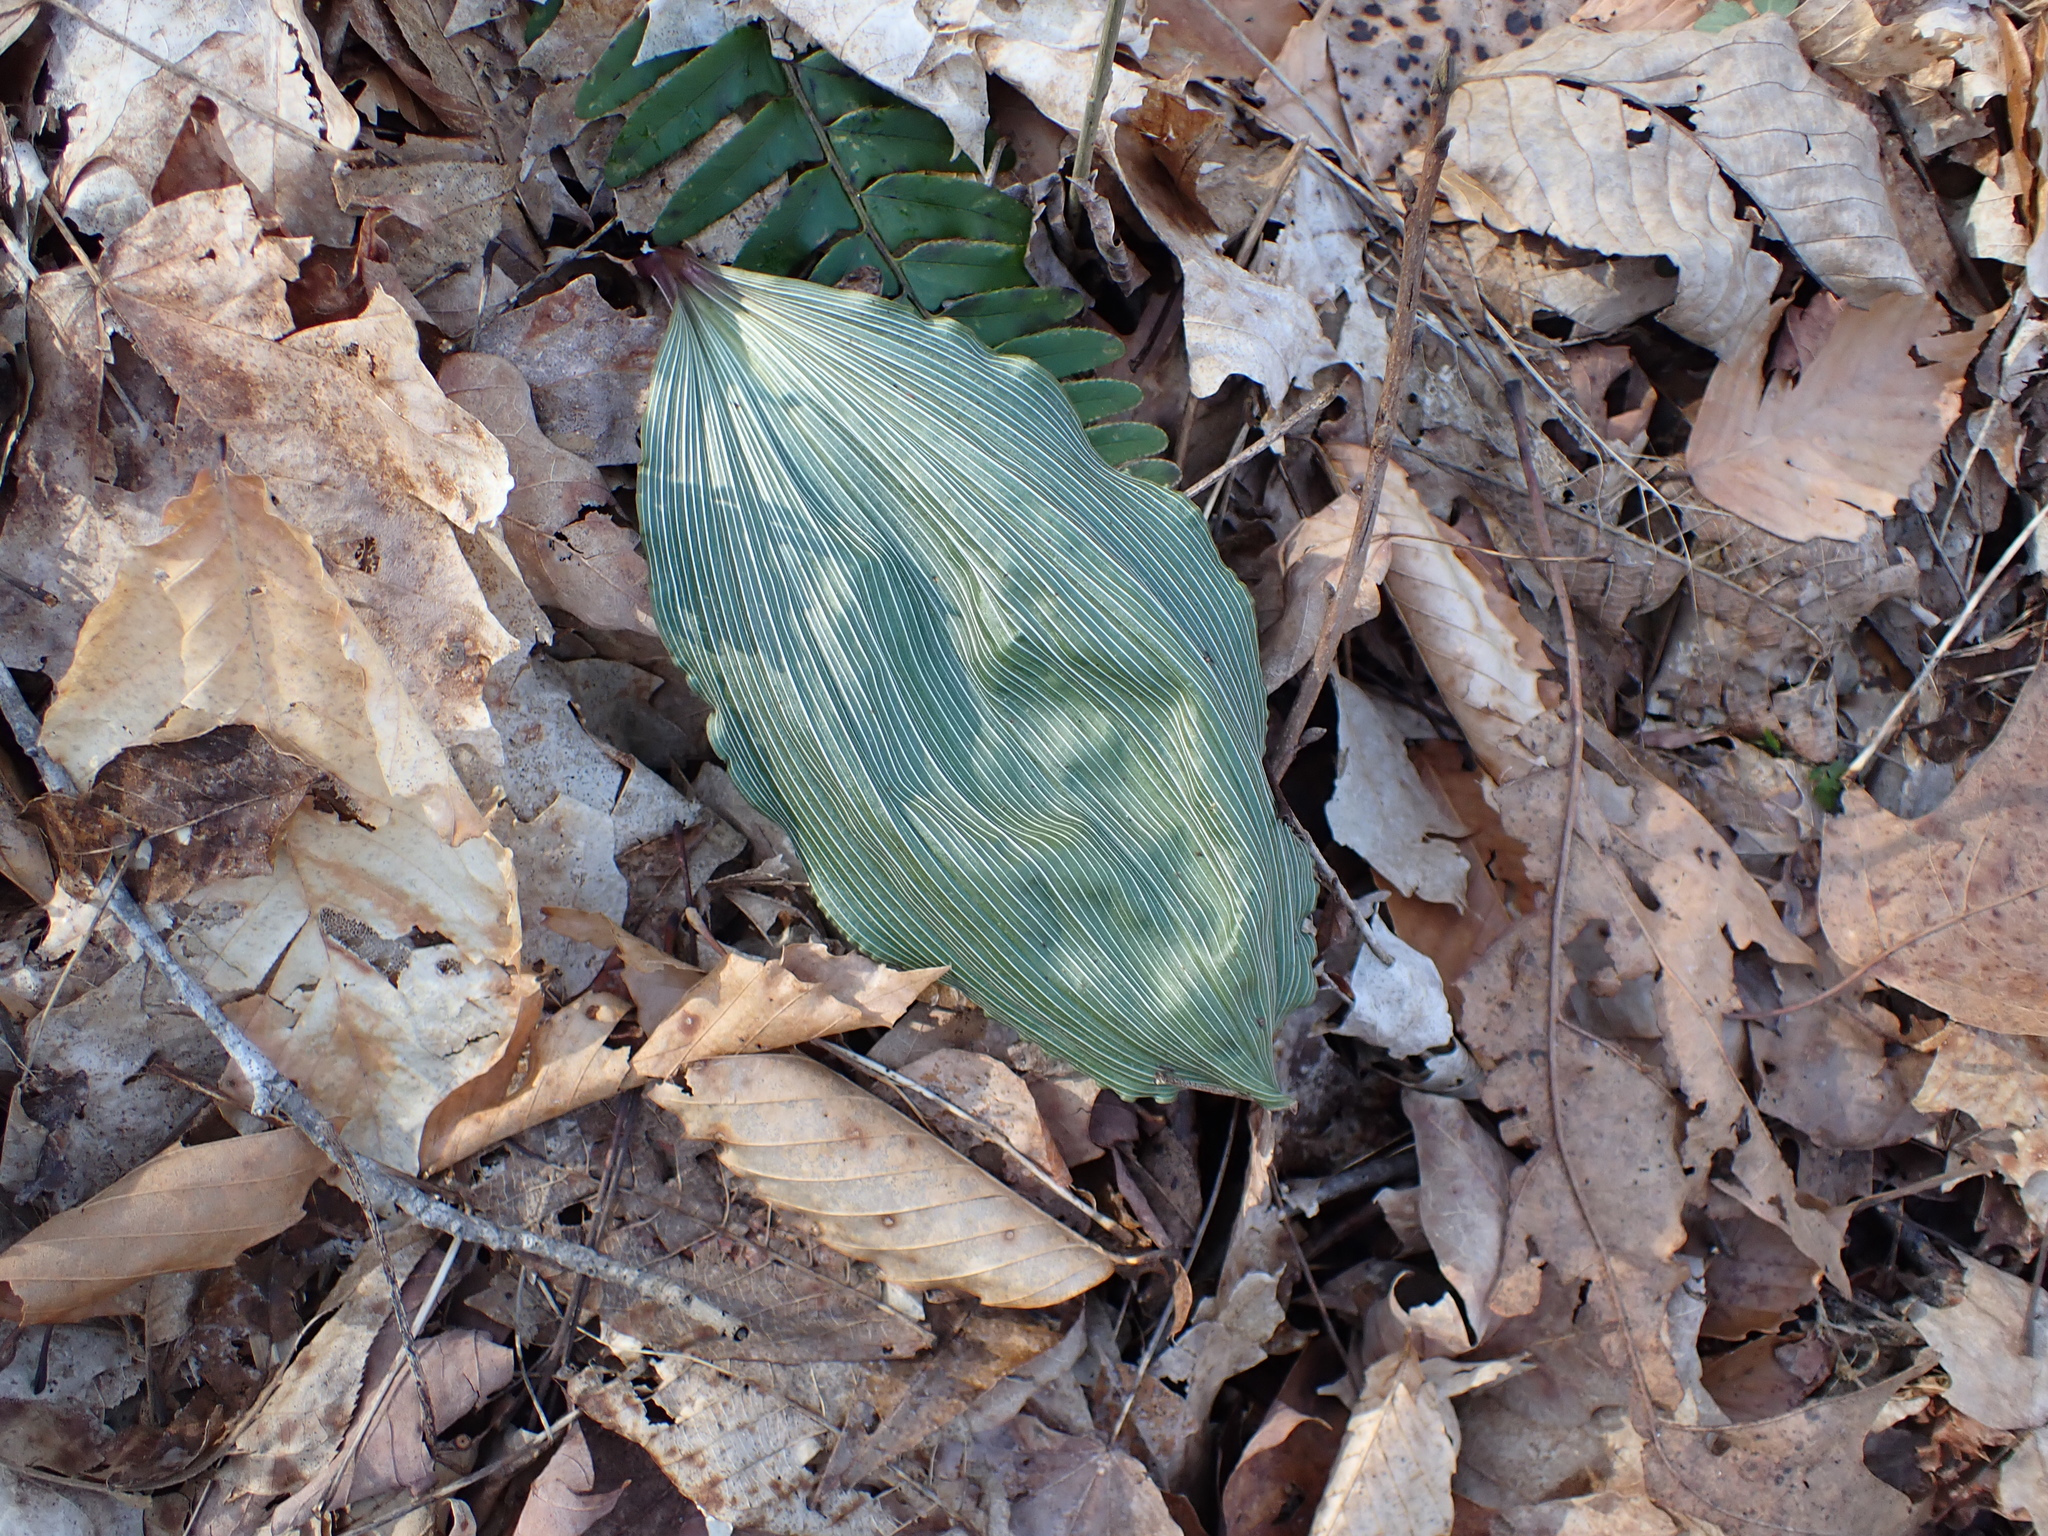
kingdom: Plantae
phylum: Tracheophyta
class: Liliopsida
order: Asparagales
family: Orchidaceae
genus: Aplectrum
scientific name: Aplectrum hyemale
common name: Adam-and-eve
